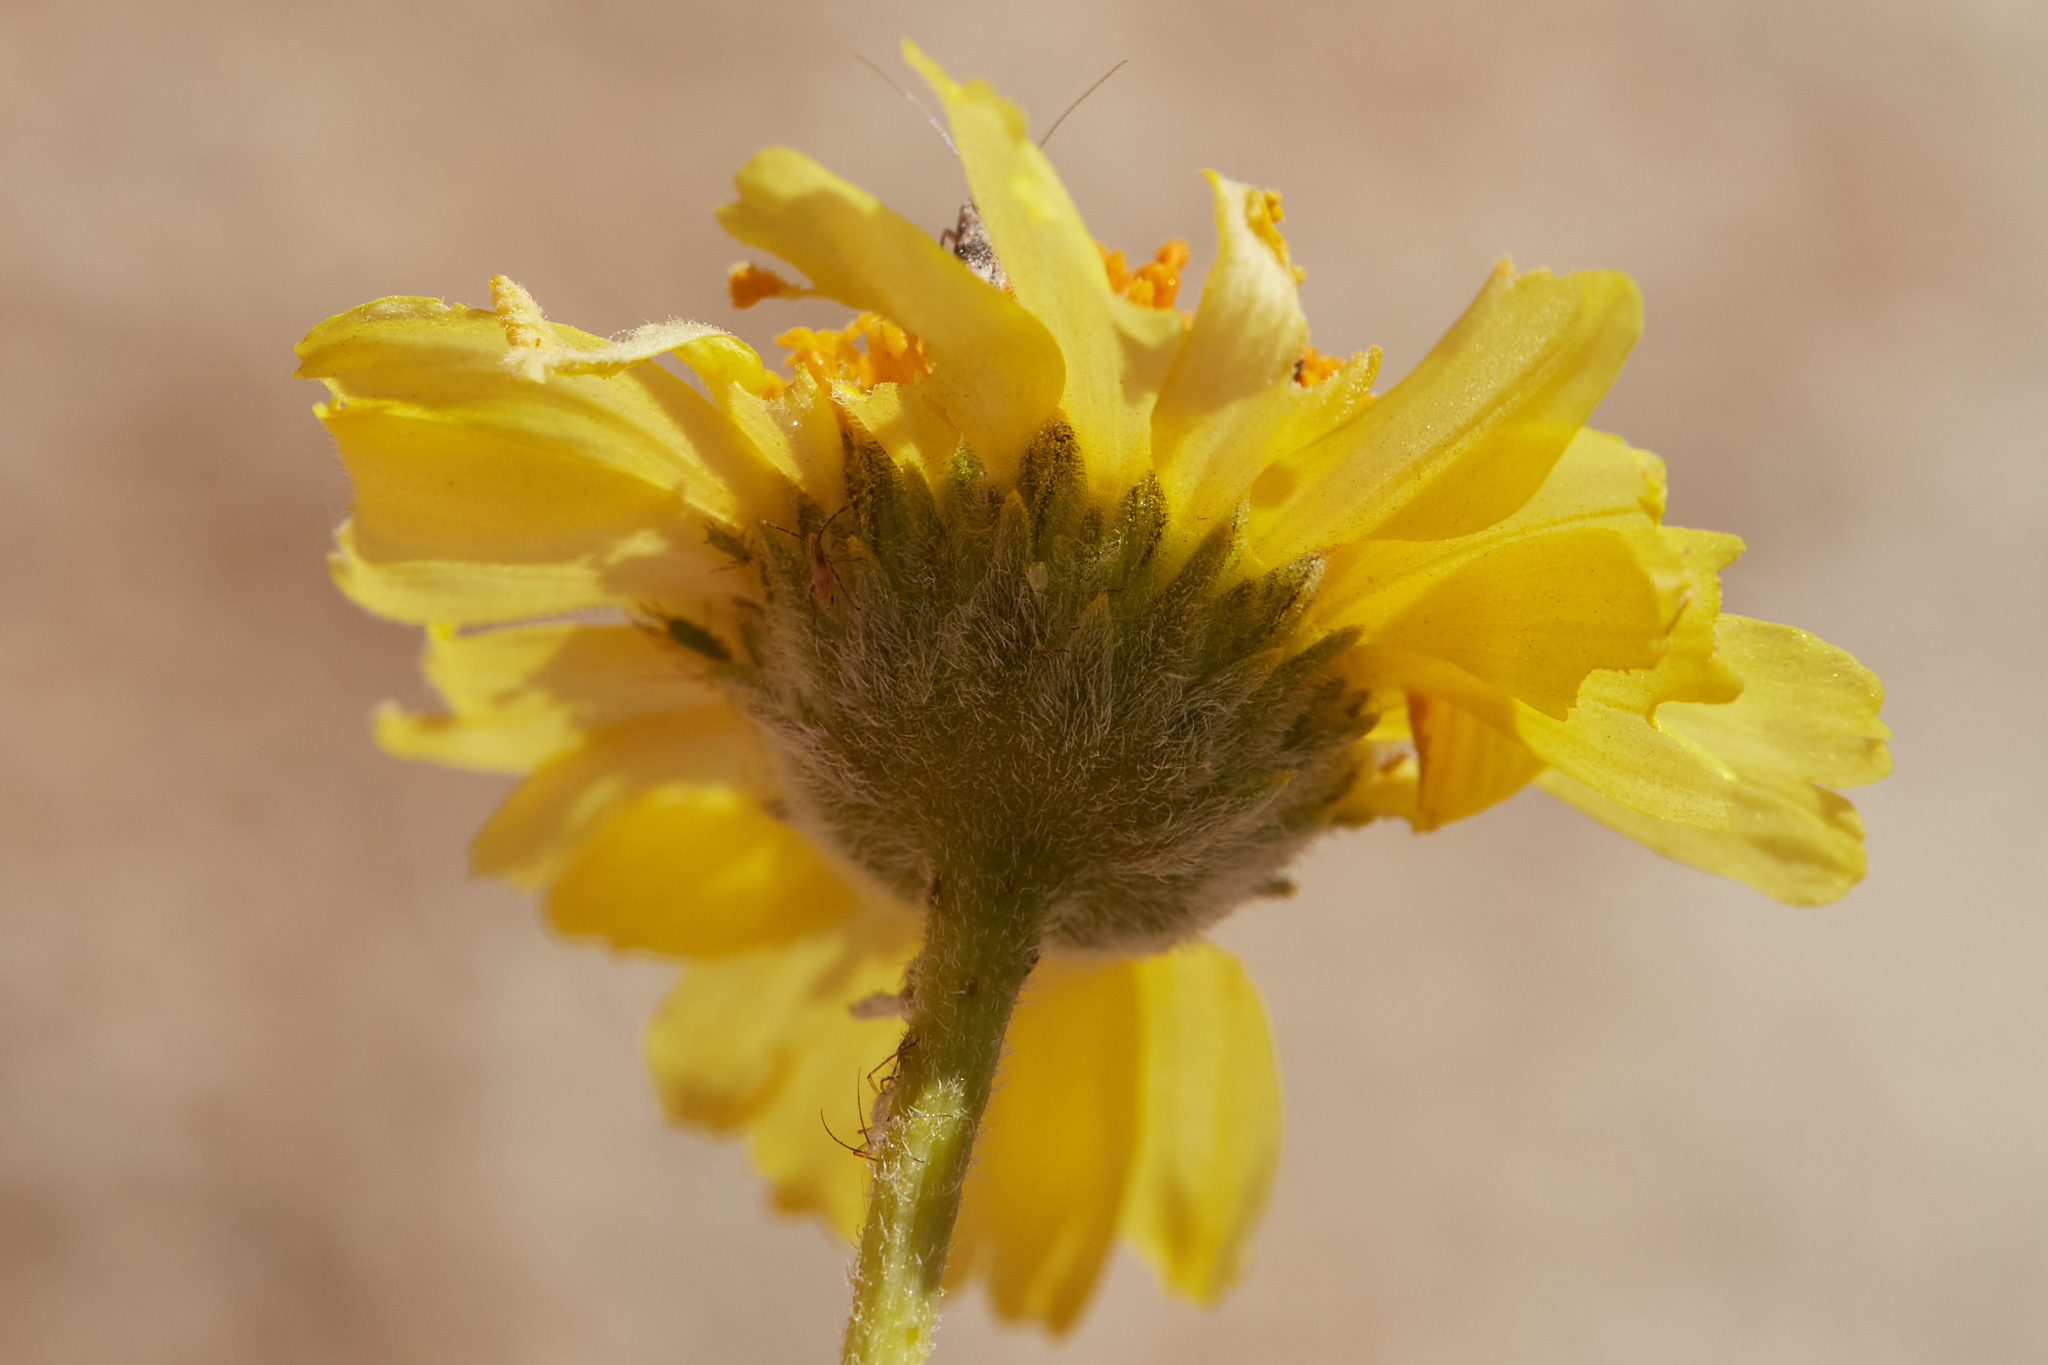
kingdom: Plantae
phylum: Tracheophyta
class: Magnoliopsida
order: Asterales
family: Asteraceae
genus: Encelia
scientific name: Encelia actoni
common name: Acton encelia
